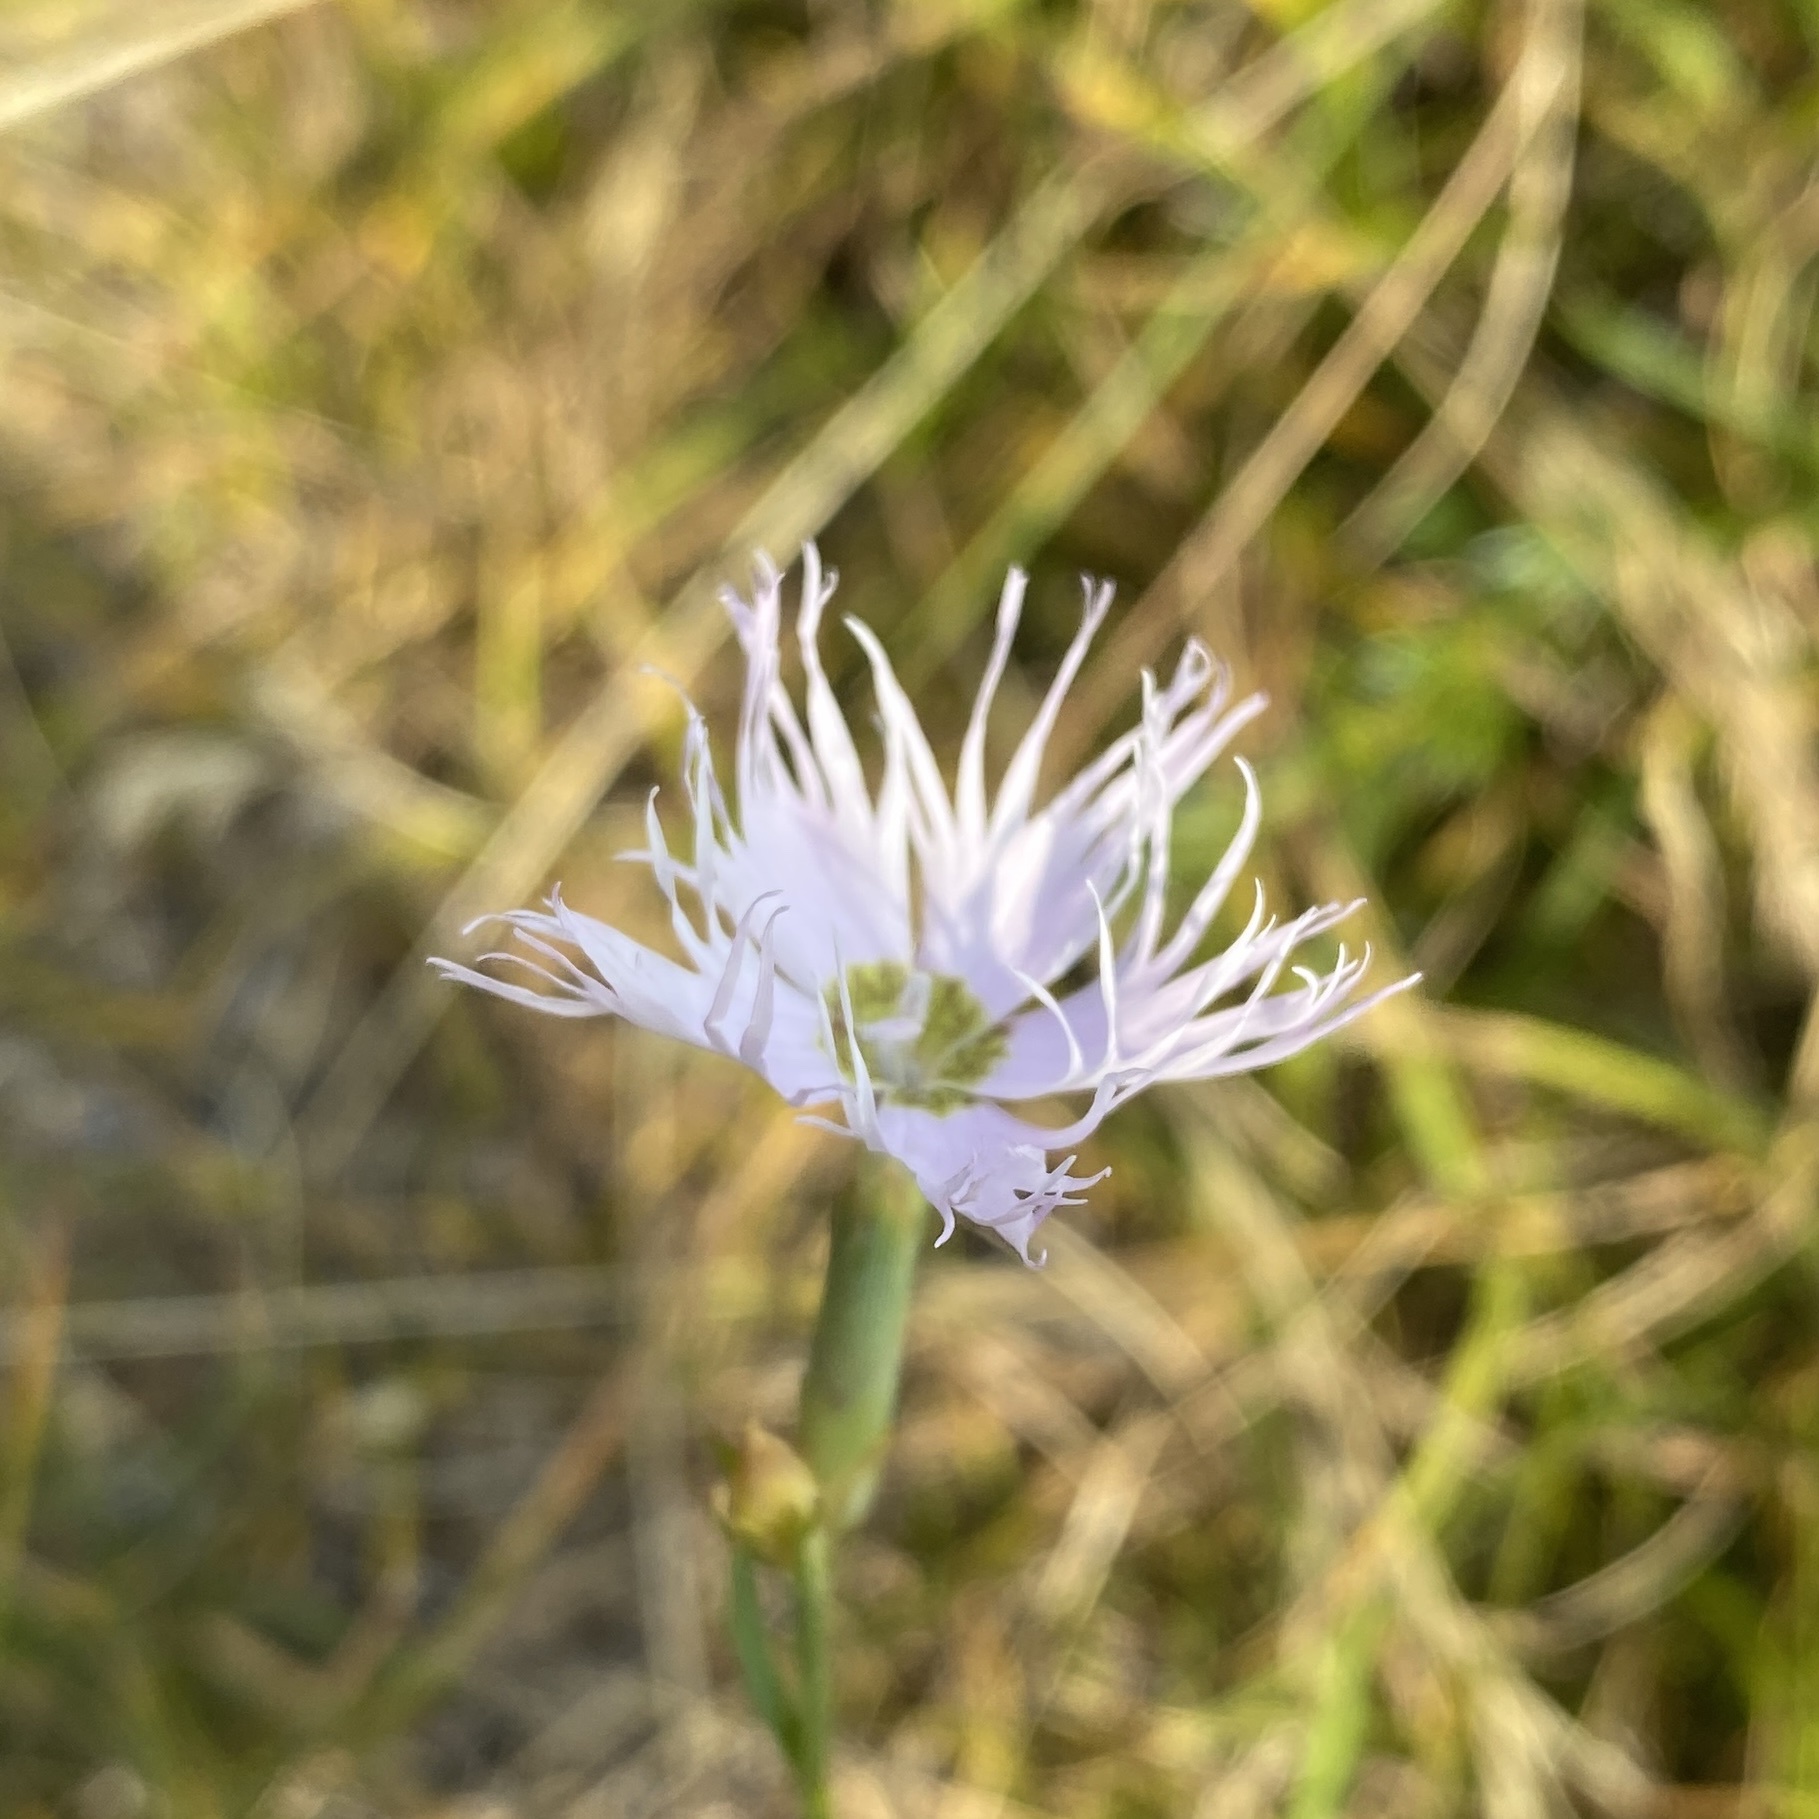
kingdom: Plantae
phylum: Tracheophyta
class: Magnoliopsida
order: Caryophyllales
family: Caryophyllaceae
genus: Dianthus
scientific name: Dianthus hyssopifolius
